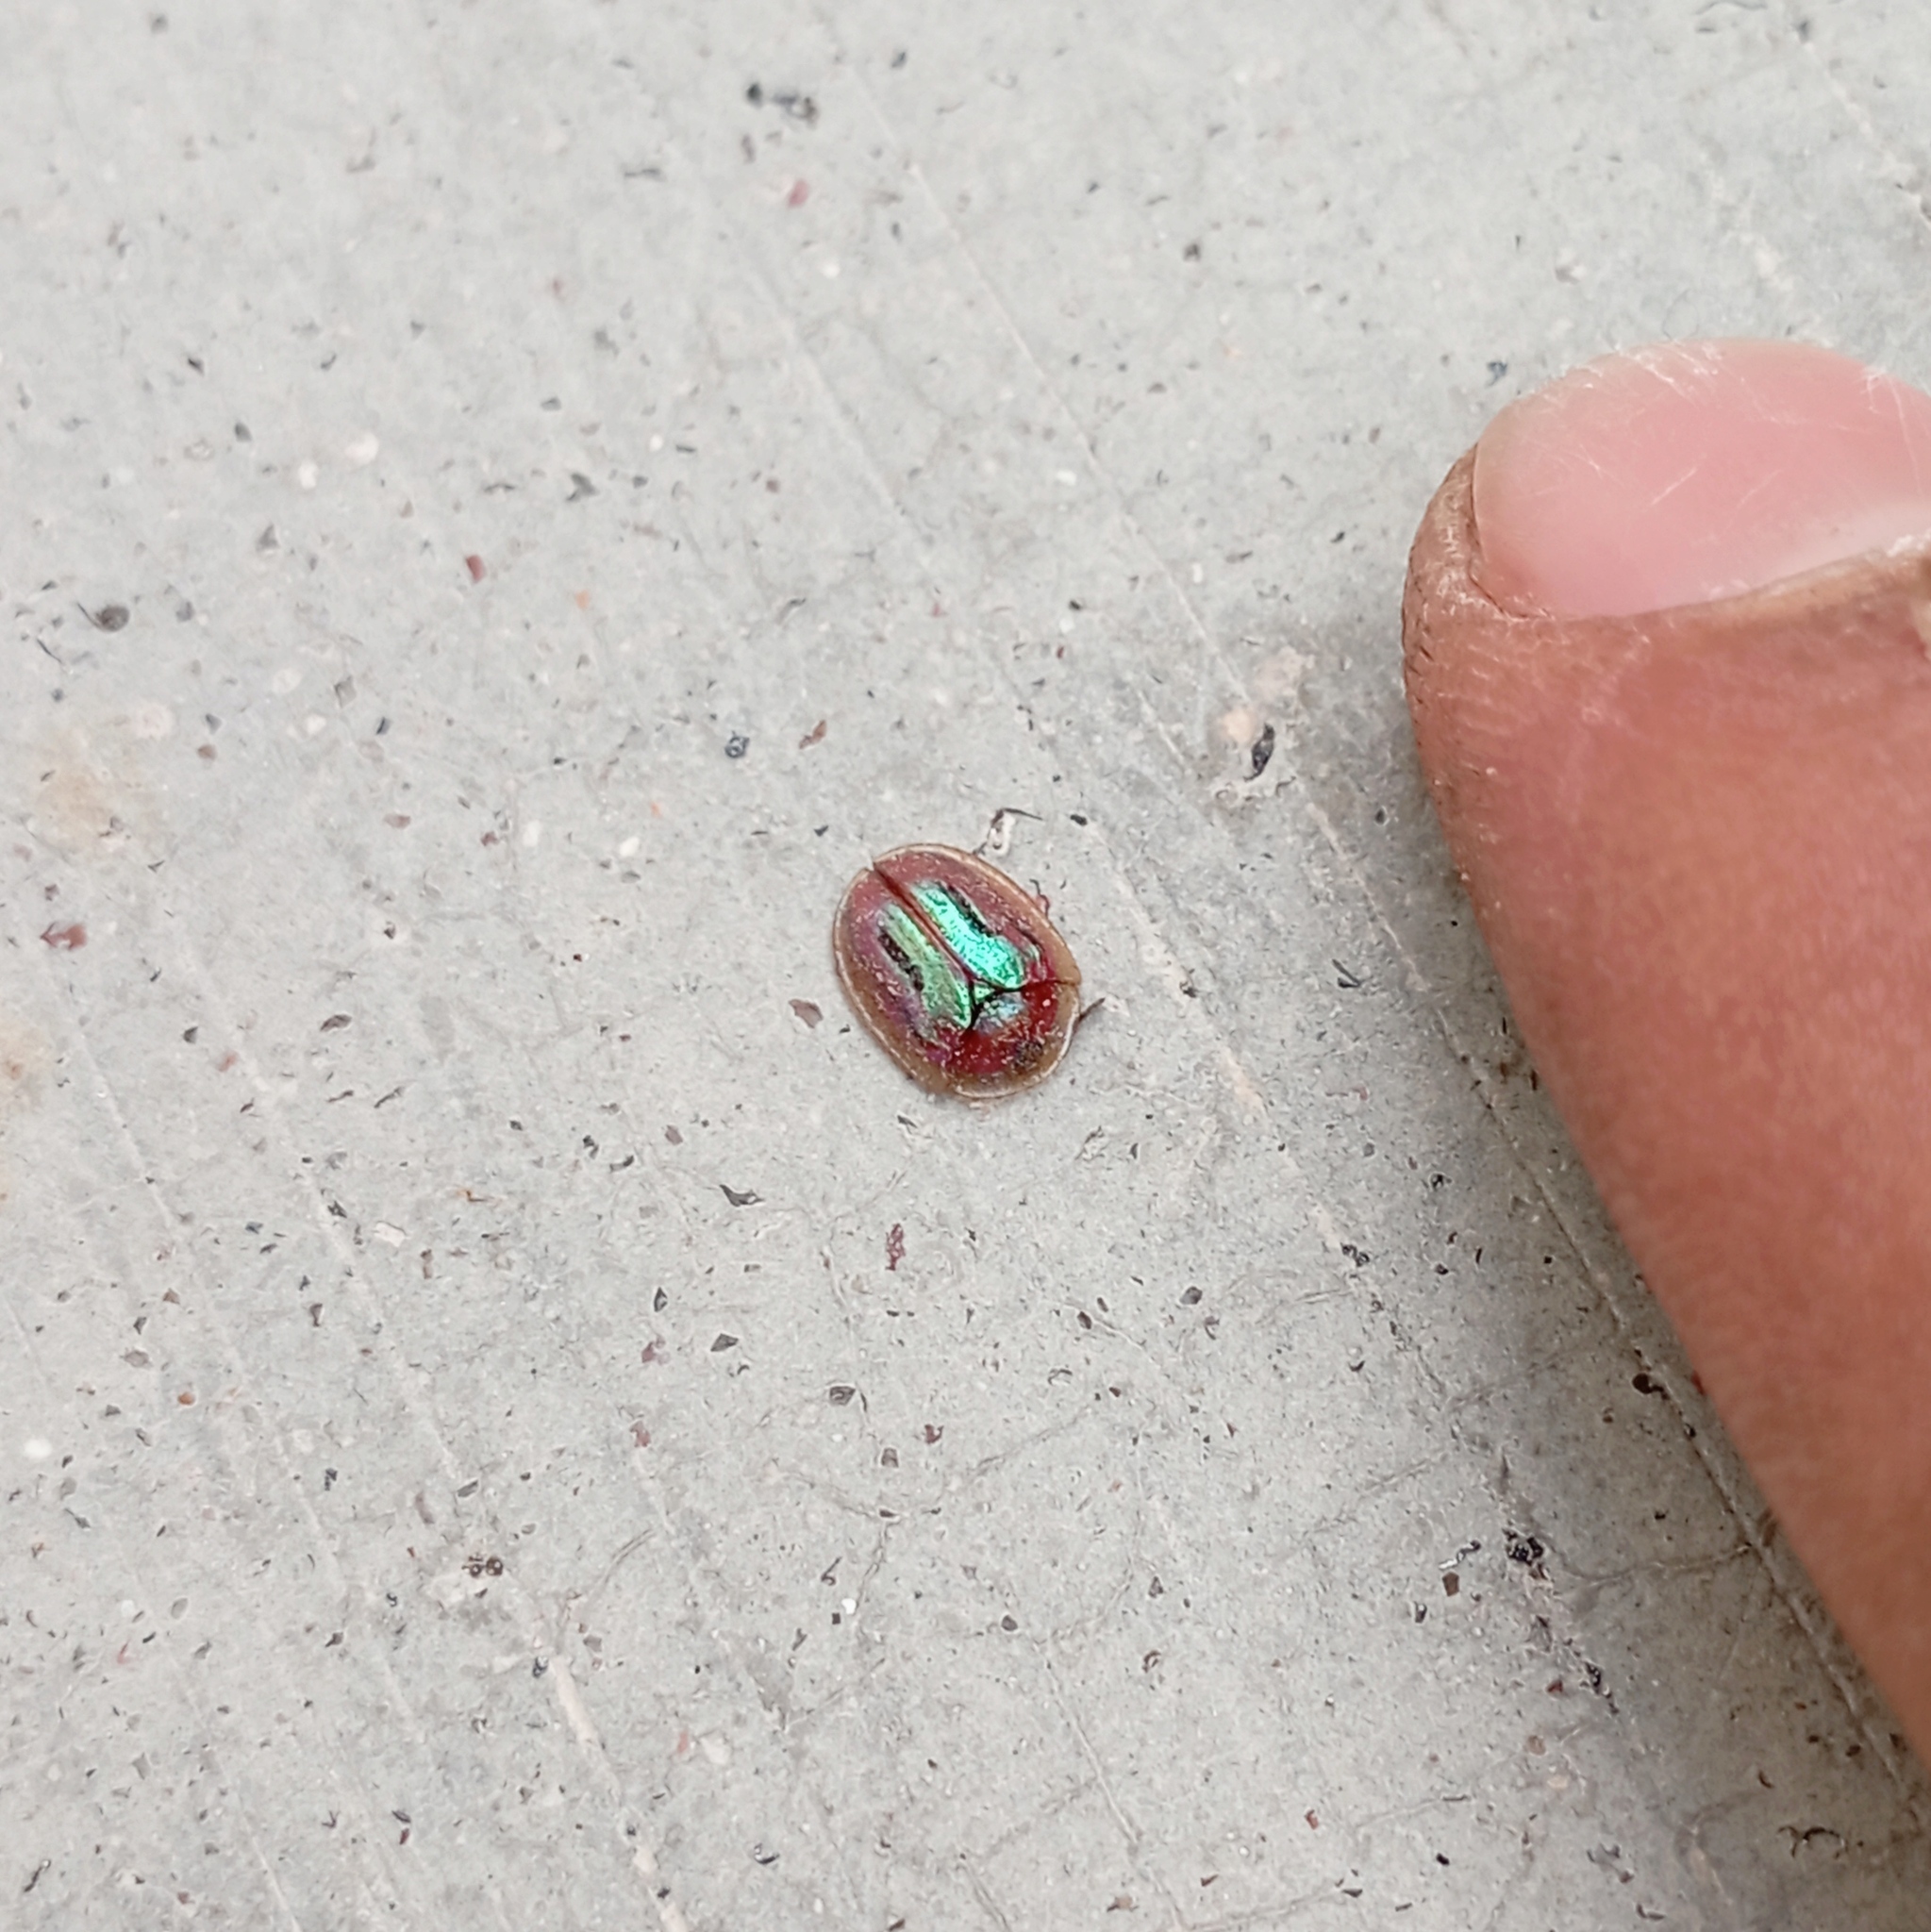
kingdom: Animalia
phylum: Arthropoda
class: Insecta
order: Coleoptera
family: Chrysomelidae
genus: Jonthonota
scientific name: Jonthonota mexicana
